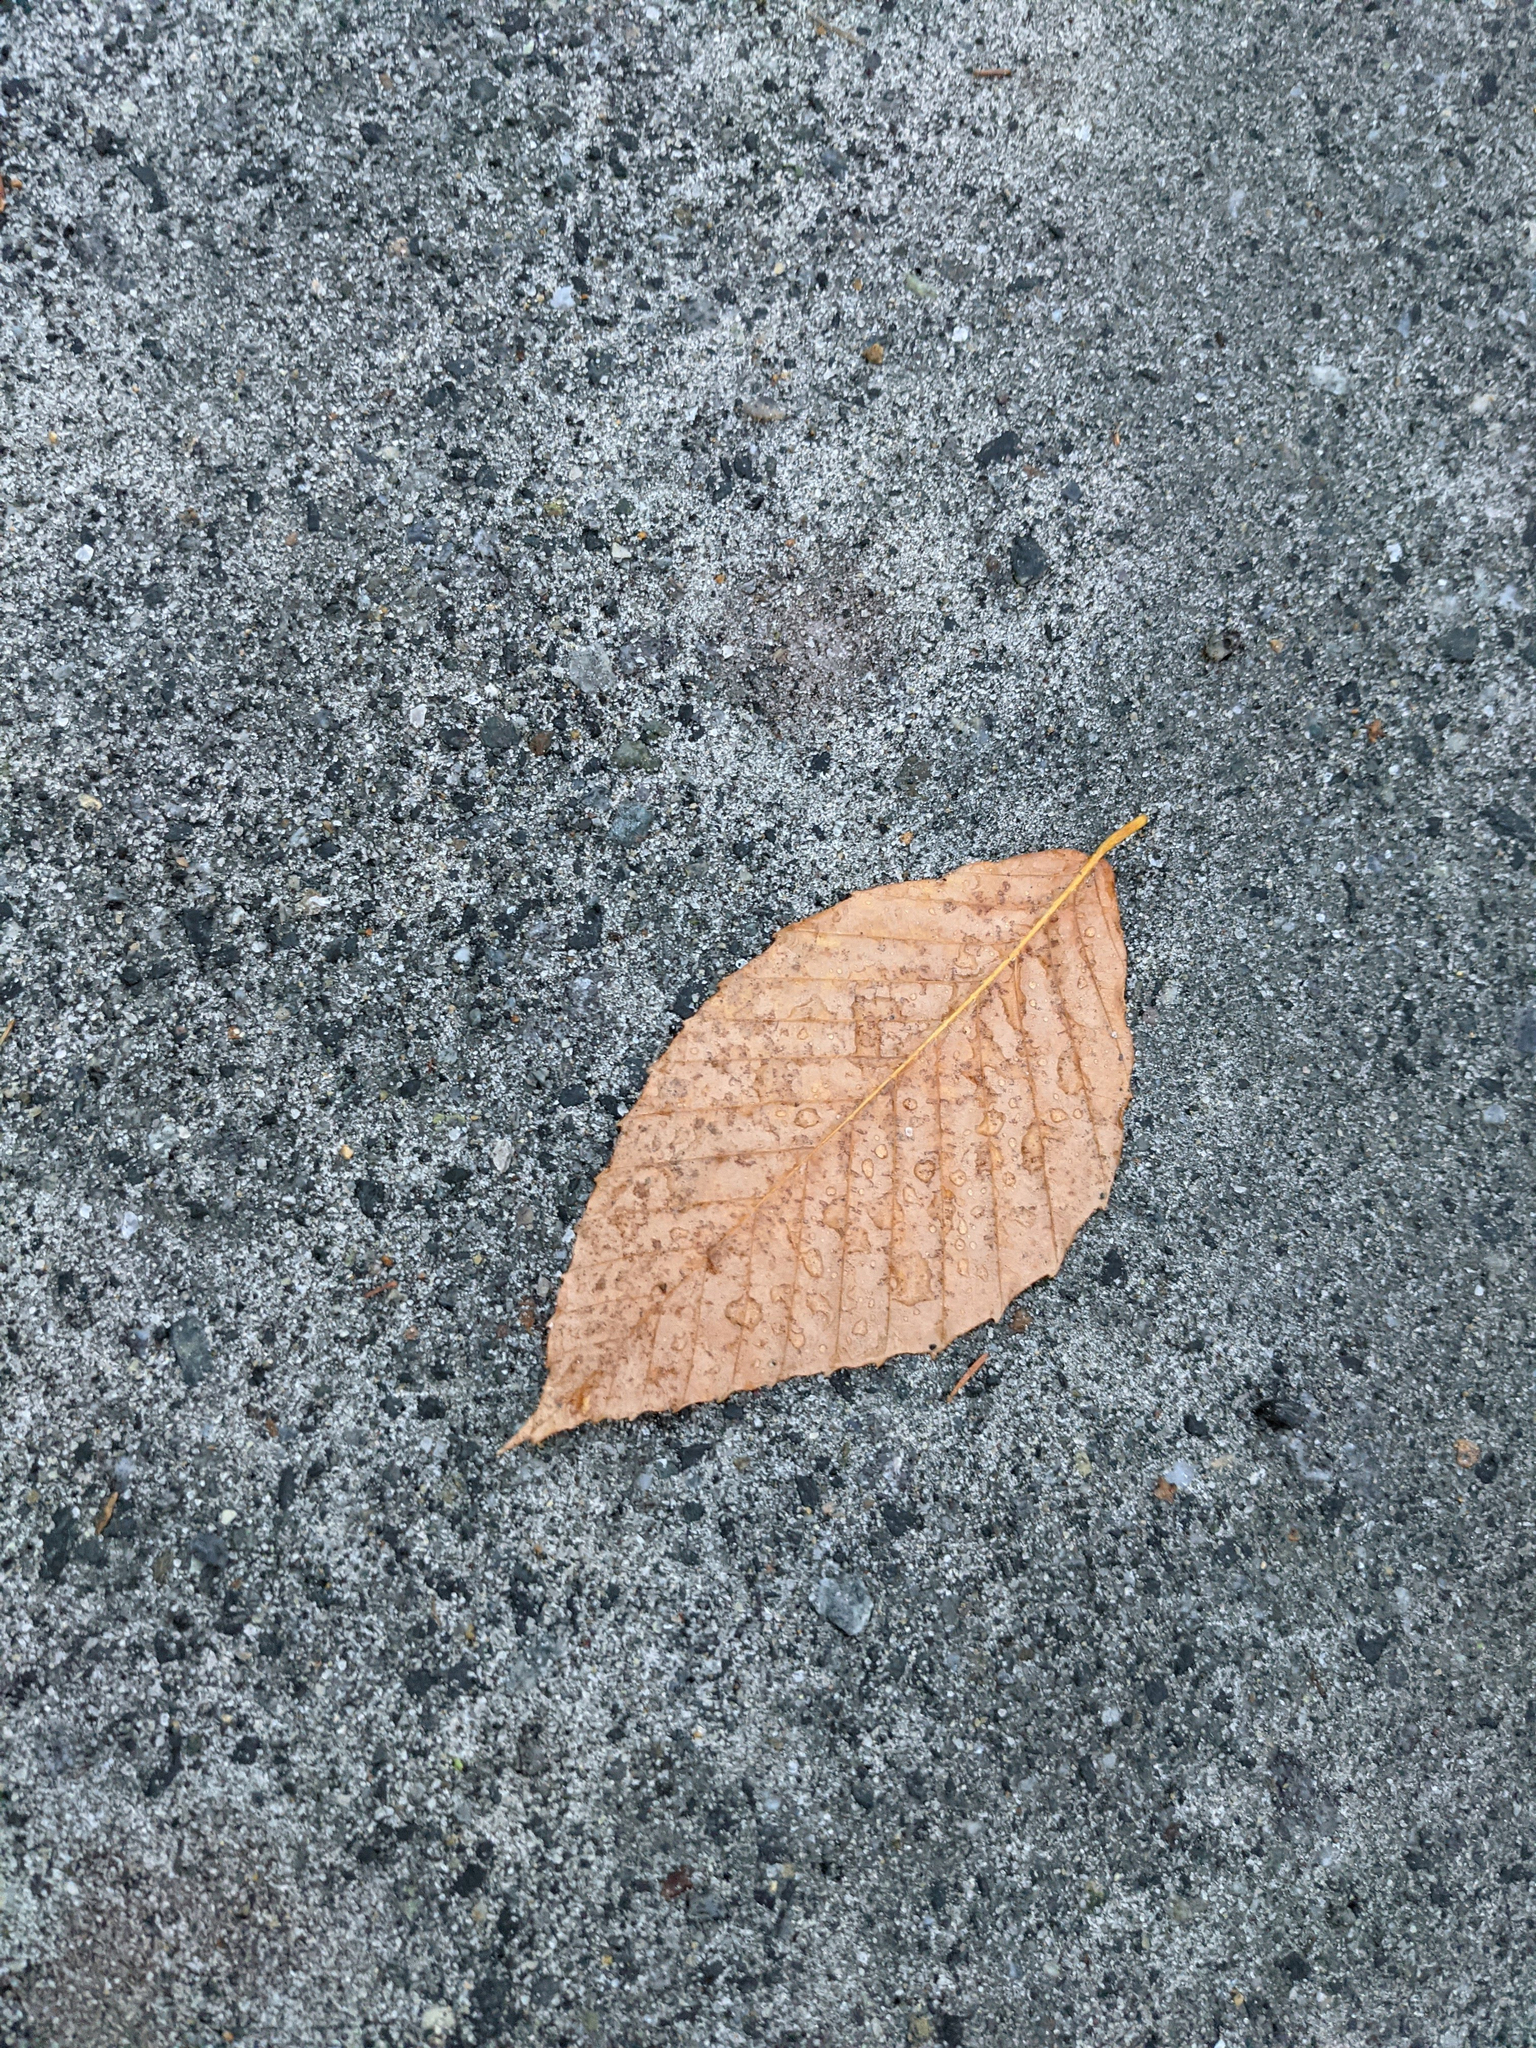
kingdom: Plantae
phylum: Tracheophyta
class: Magnoliopsida
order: Fagales
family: Fagaceae
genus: Fagus
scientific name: Fagus grandifolia
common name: American beech
